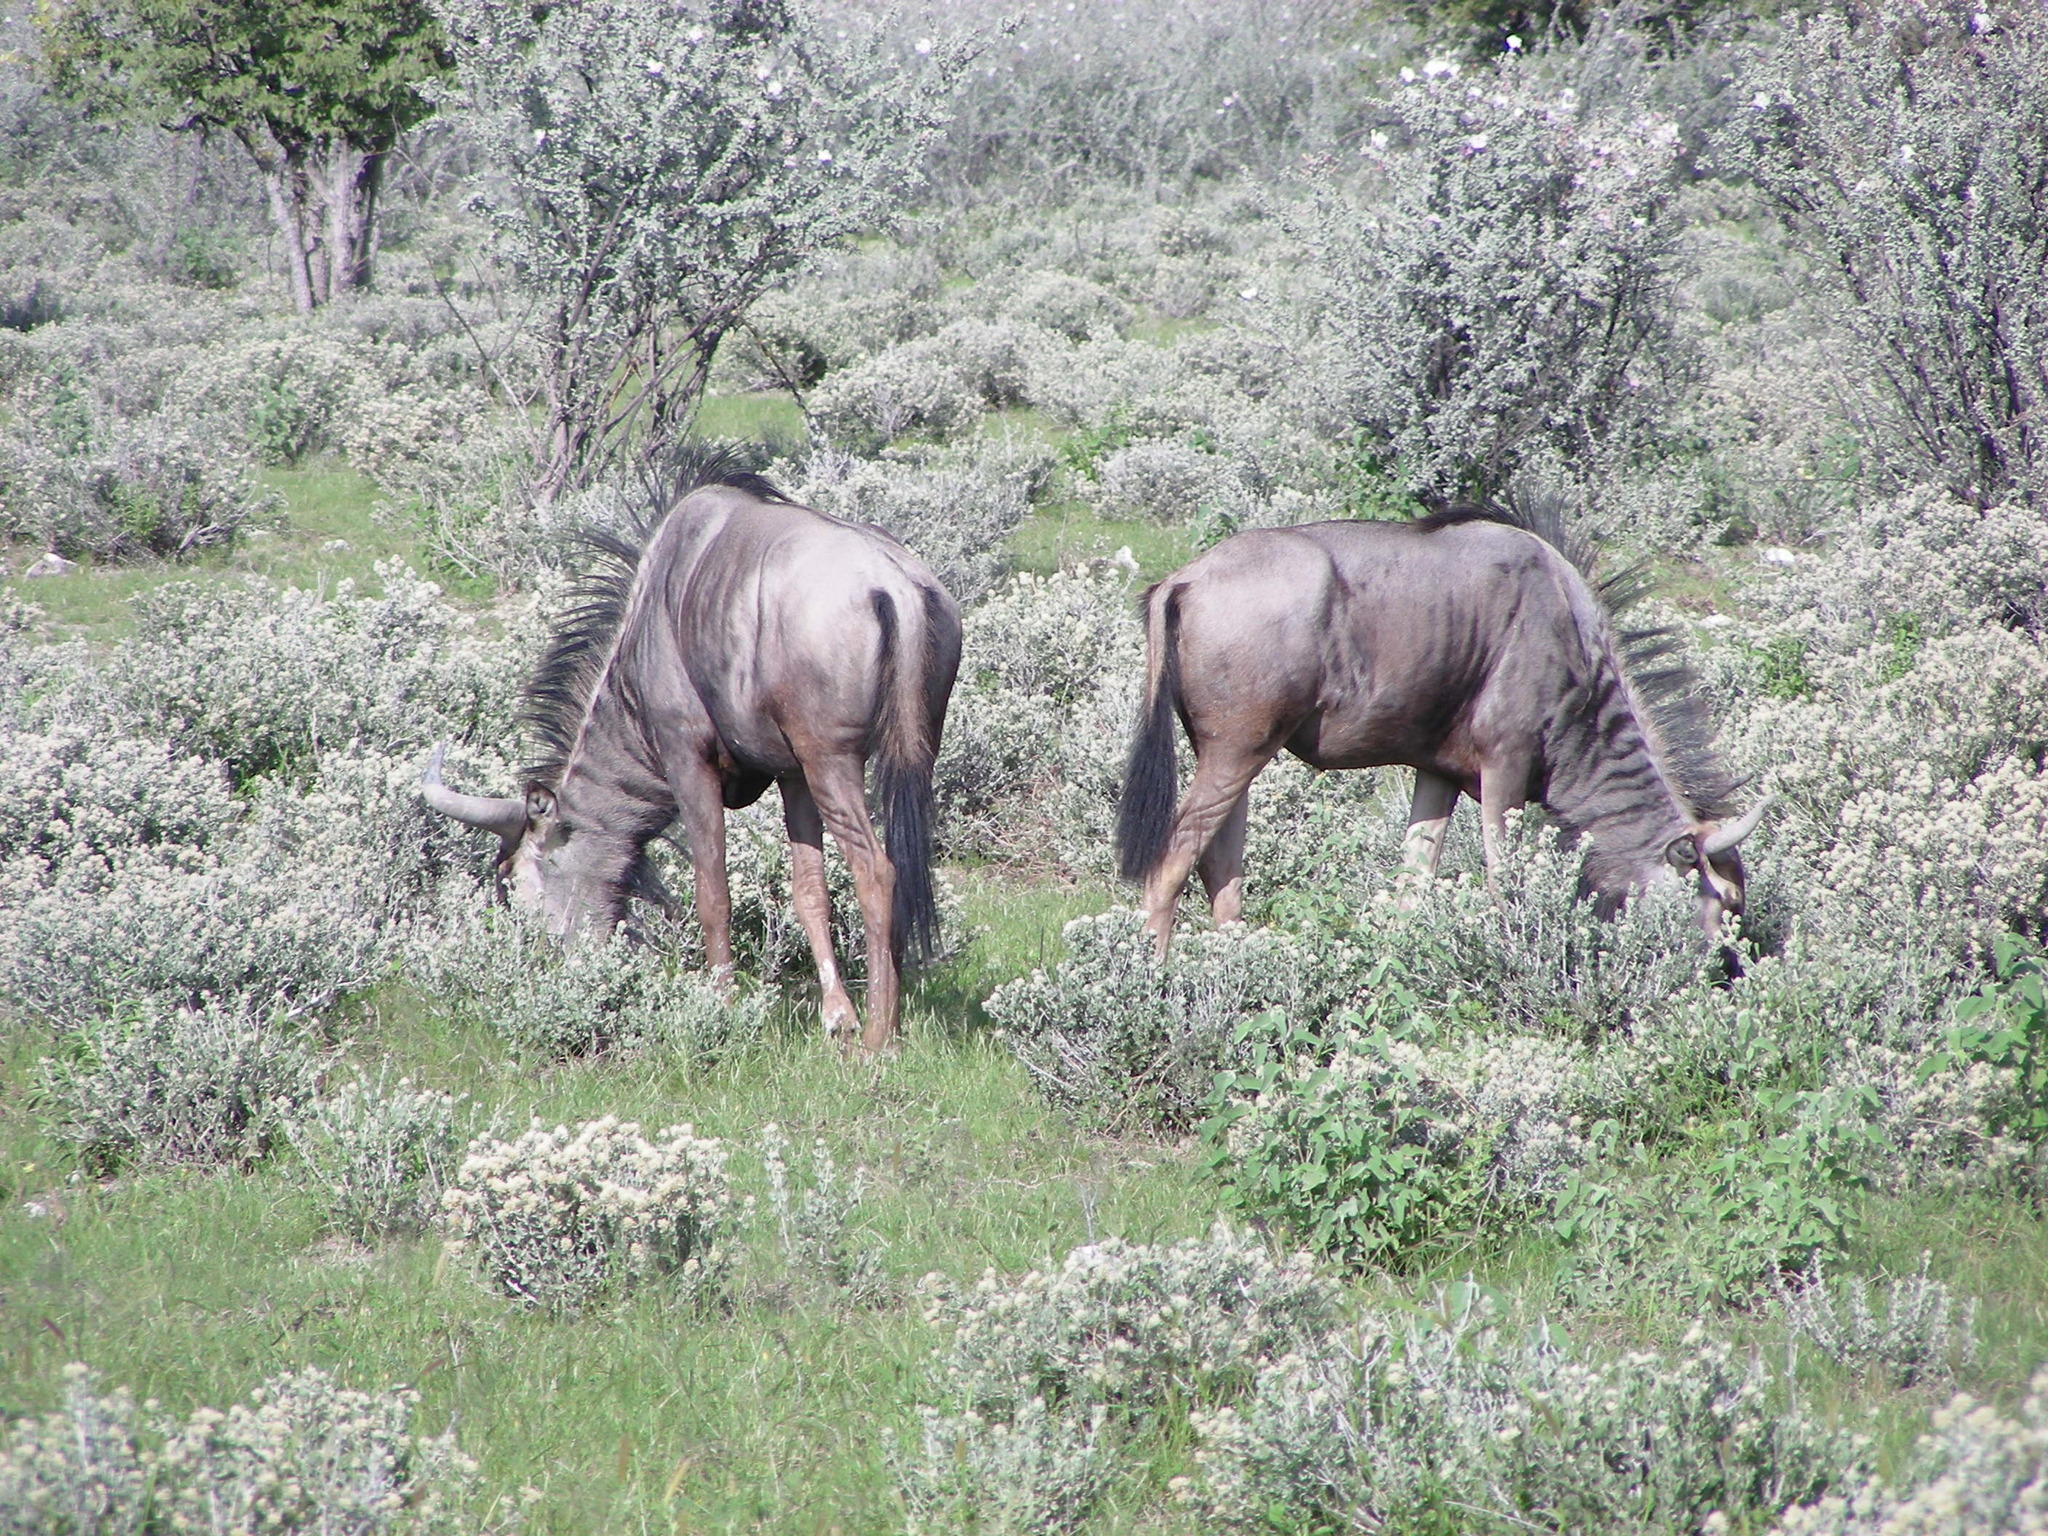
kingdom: Animalia
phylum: Chordata
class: Mammalia
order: Artiodactyla
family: Bovidae
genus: Connochaetes
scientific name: Connochaetes taurinus
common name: Blue wildebeest
